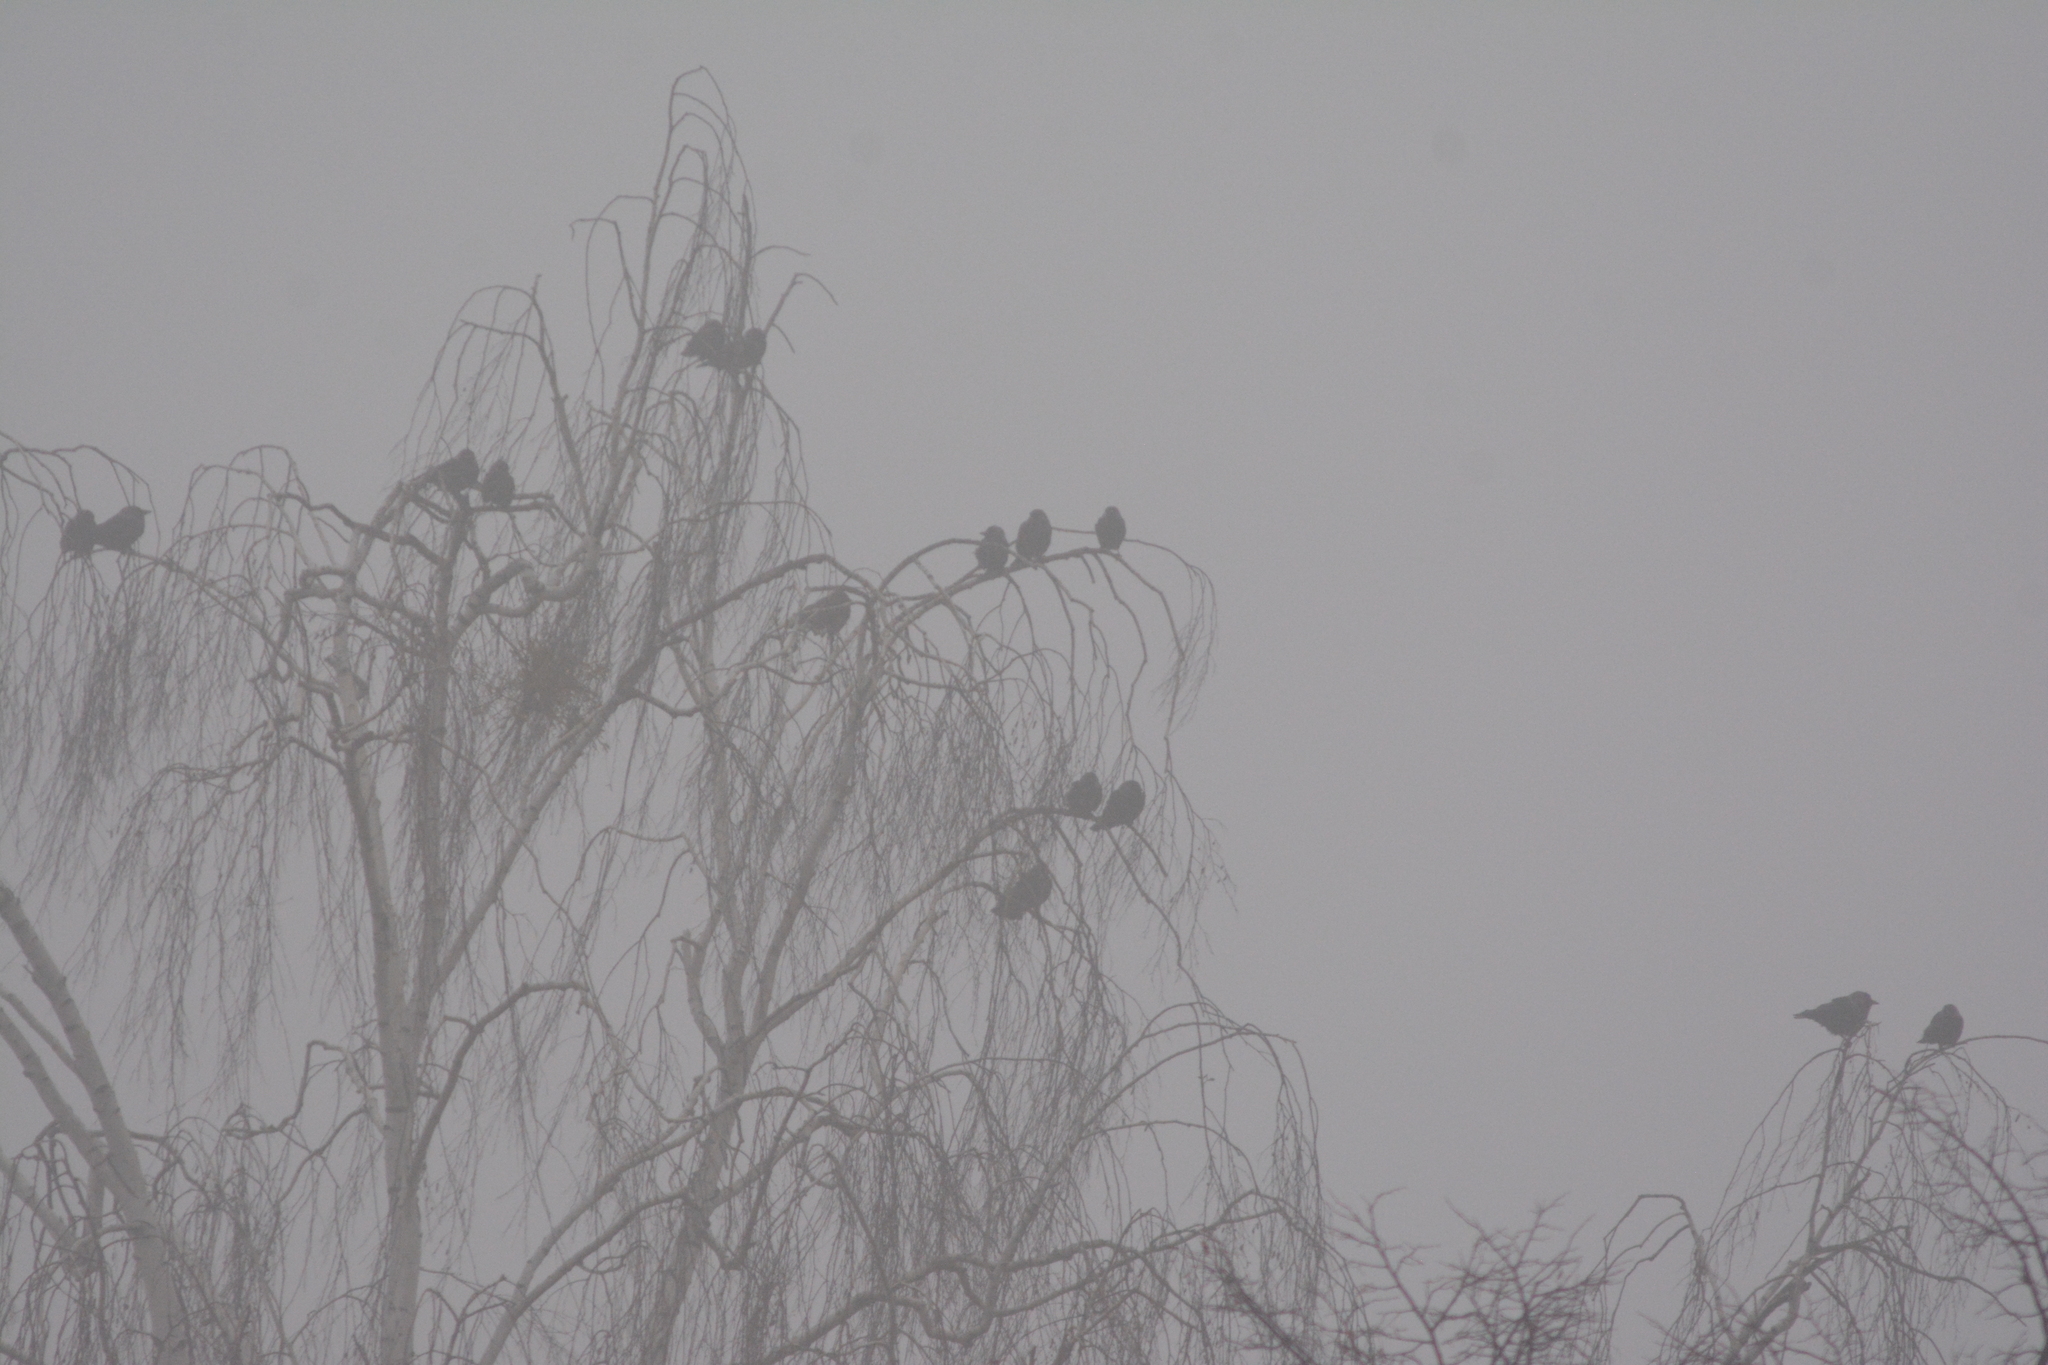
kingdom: Animalia
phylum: Chordata
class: Aves
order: Passeriformes
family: Corvidae
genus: Coloeus
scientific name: Coloeus monedula
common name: Western jackdaw
